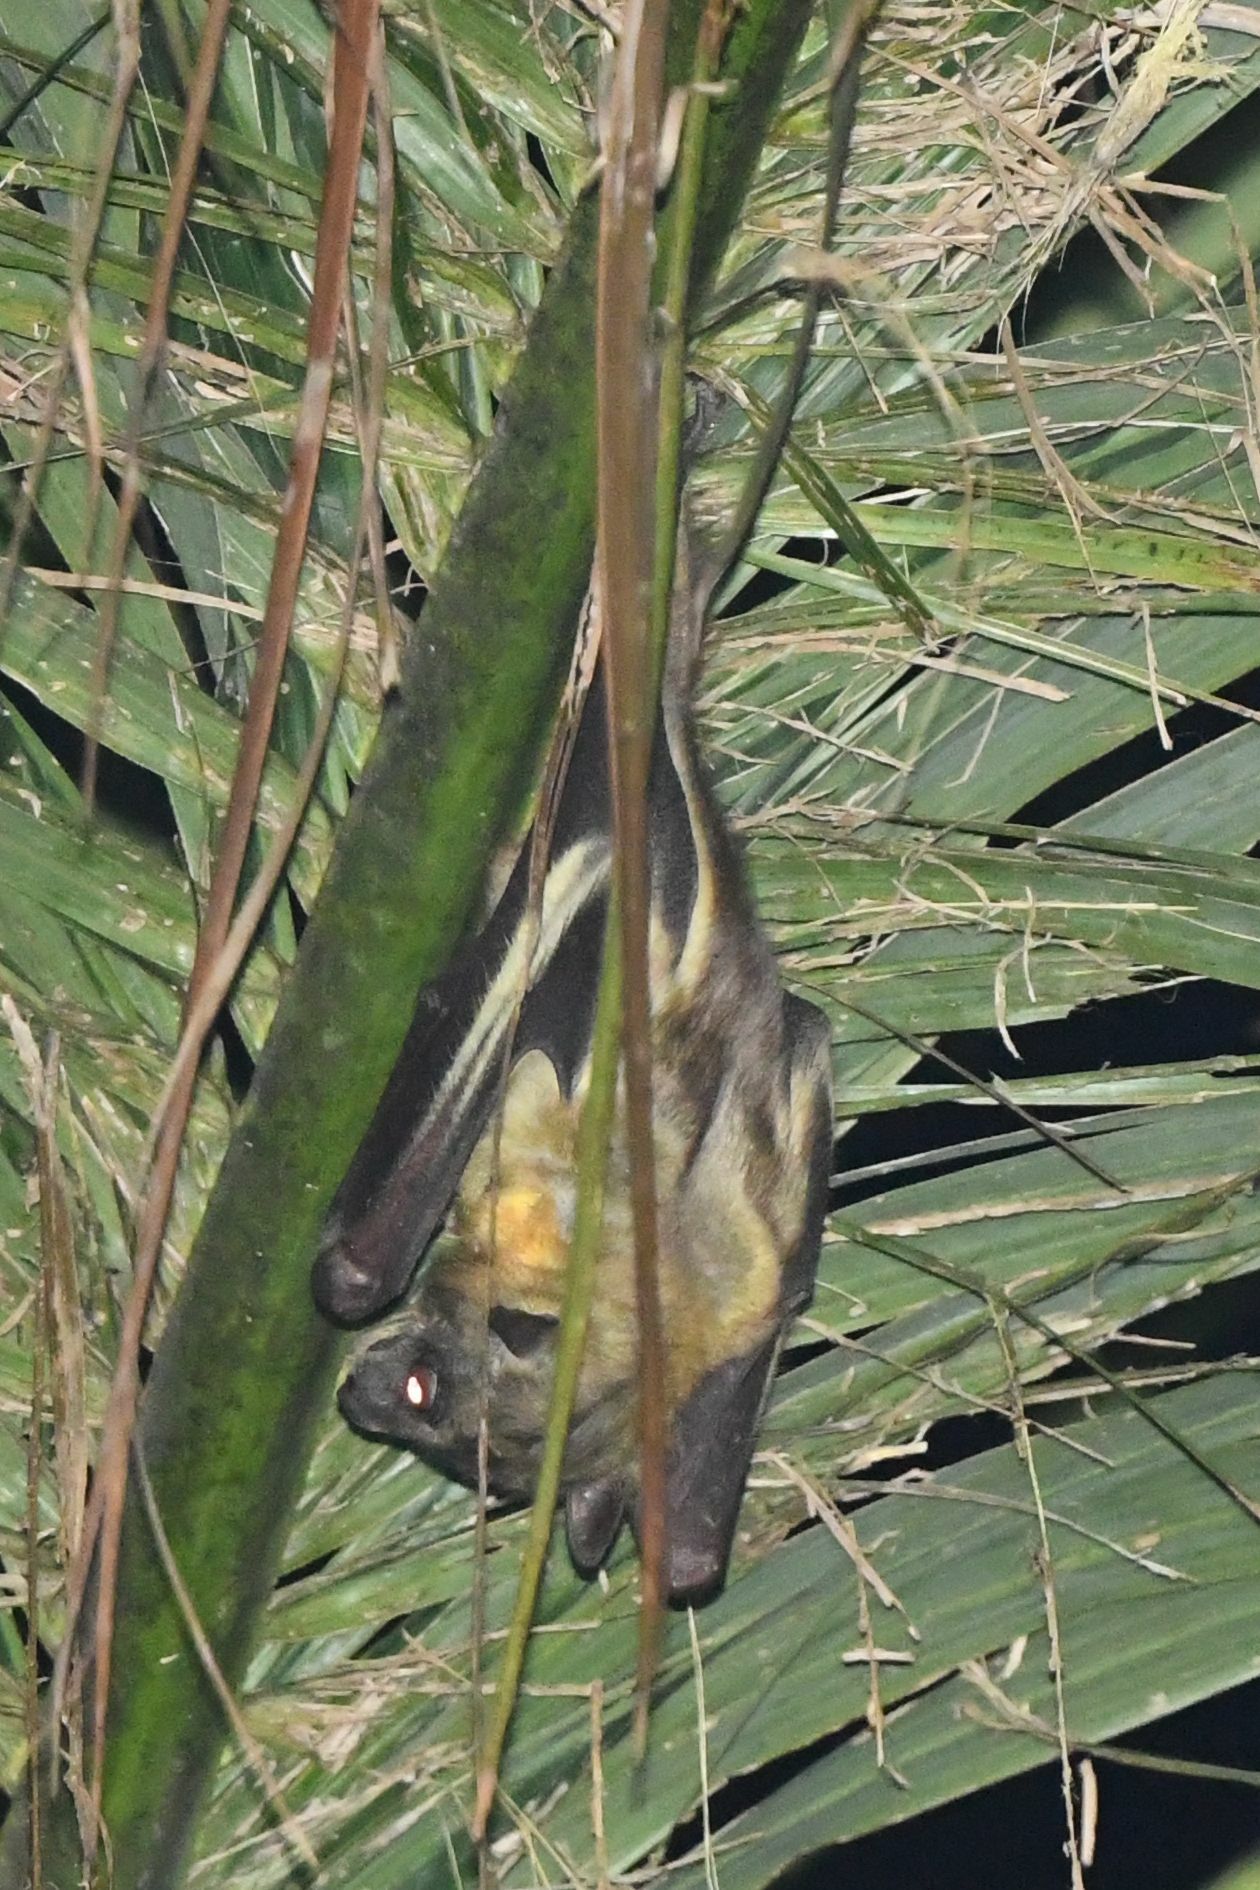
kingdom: Animalia
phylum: Chordata
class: Mammalia
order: Chiroptera
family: Pteropodidae
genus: Eidolon
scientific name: Eidolon helvum
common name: Straw-colored fruit bat
